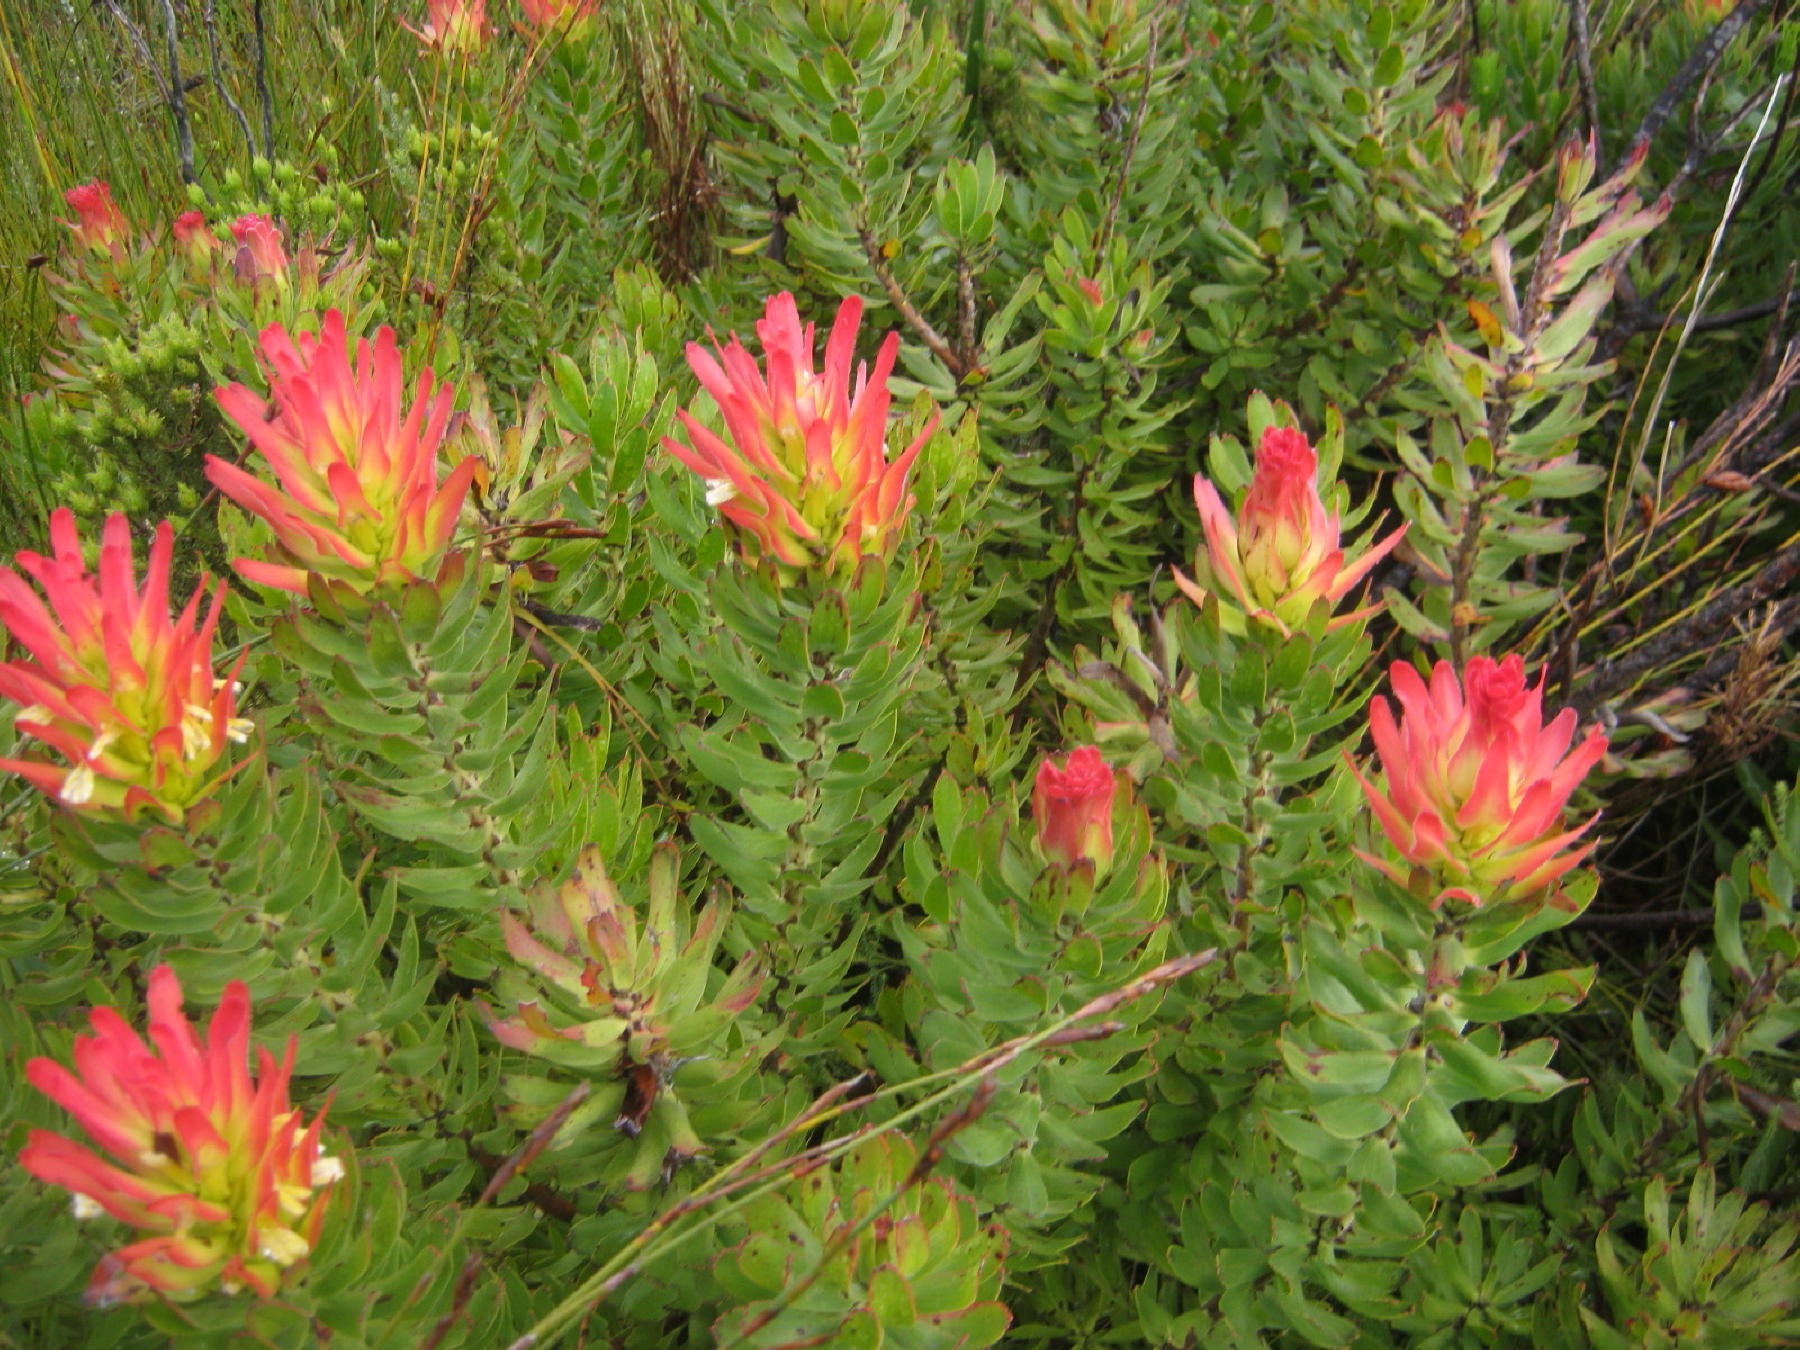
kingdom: Plantae
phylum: Tracheophyta
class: Magnoliopsida
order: Proteales
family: Proteaceae
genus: Mimetes
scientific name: Mimetes cucullatus
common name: Common pagoda
